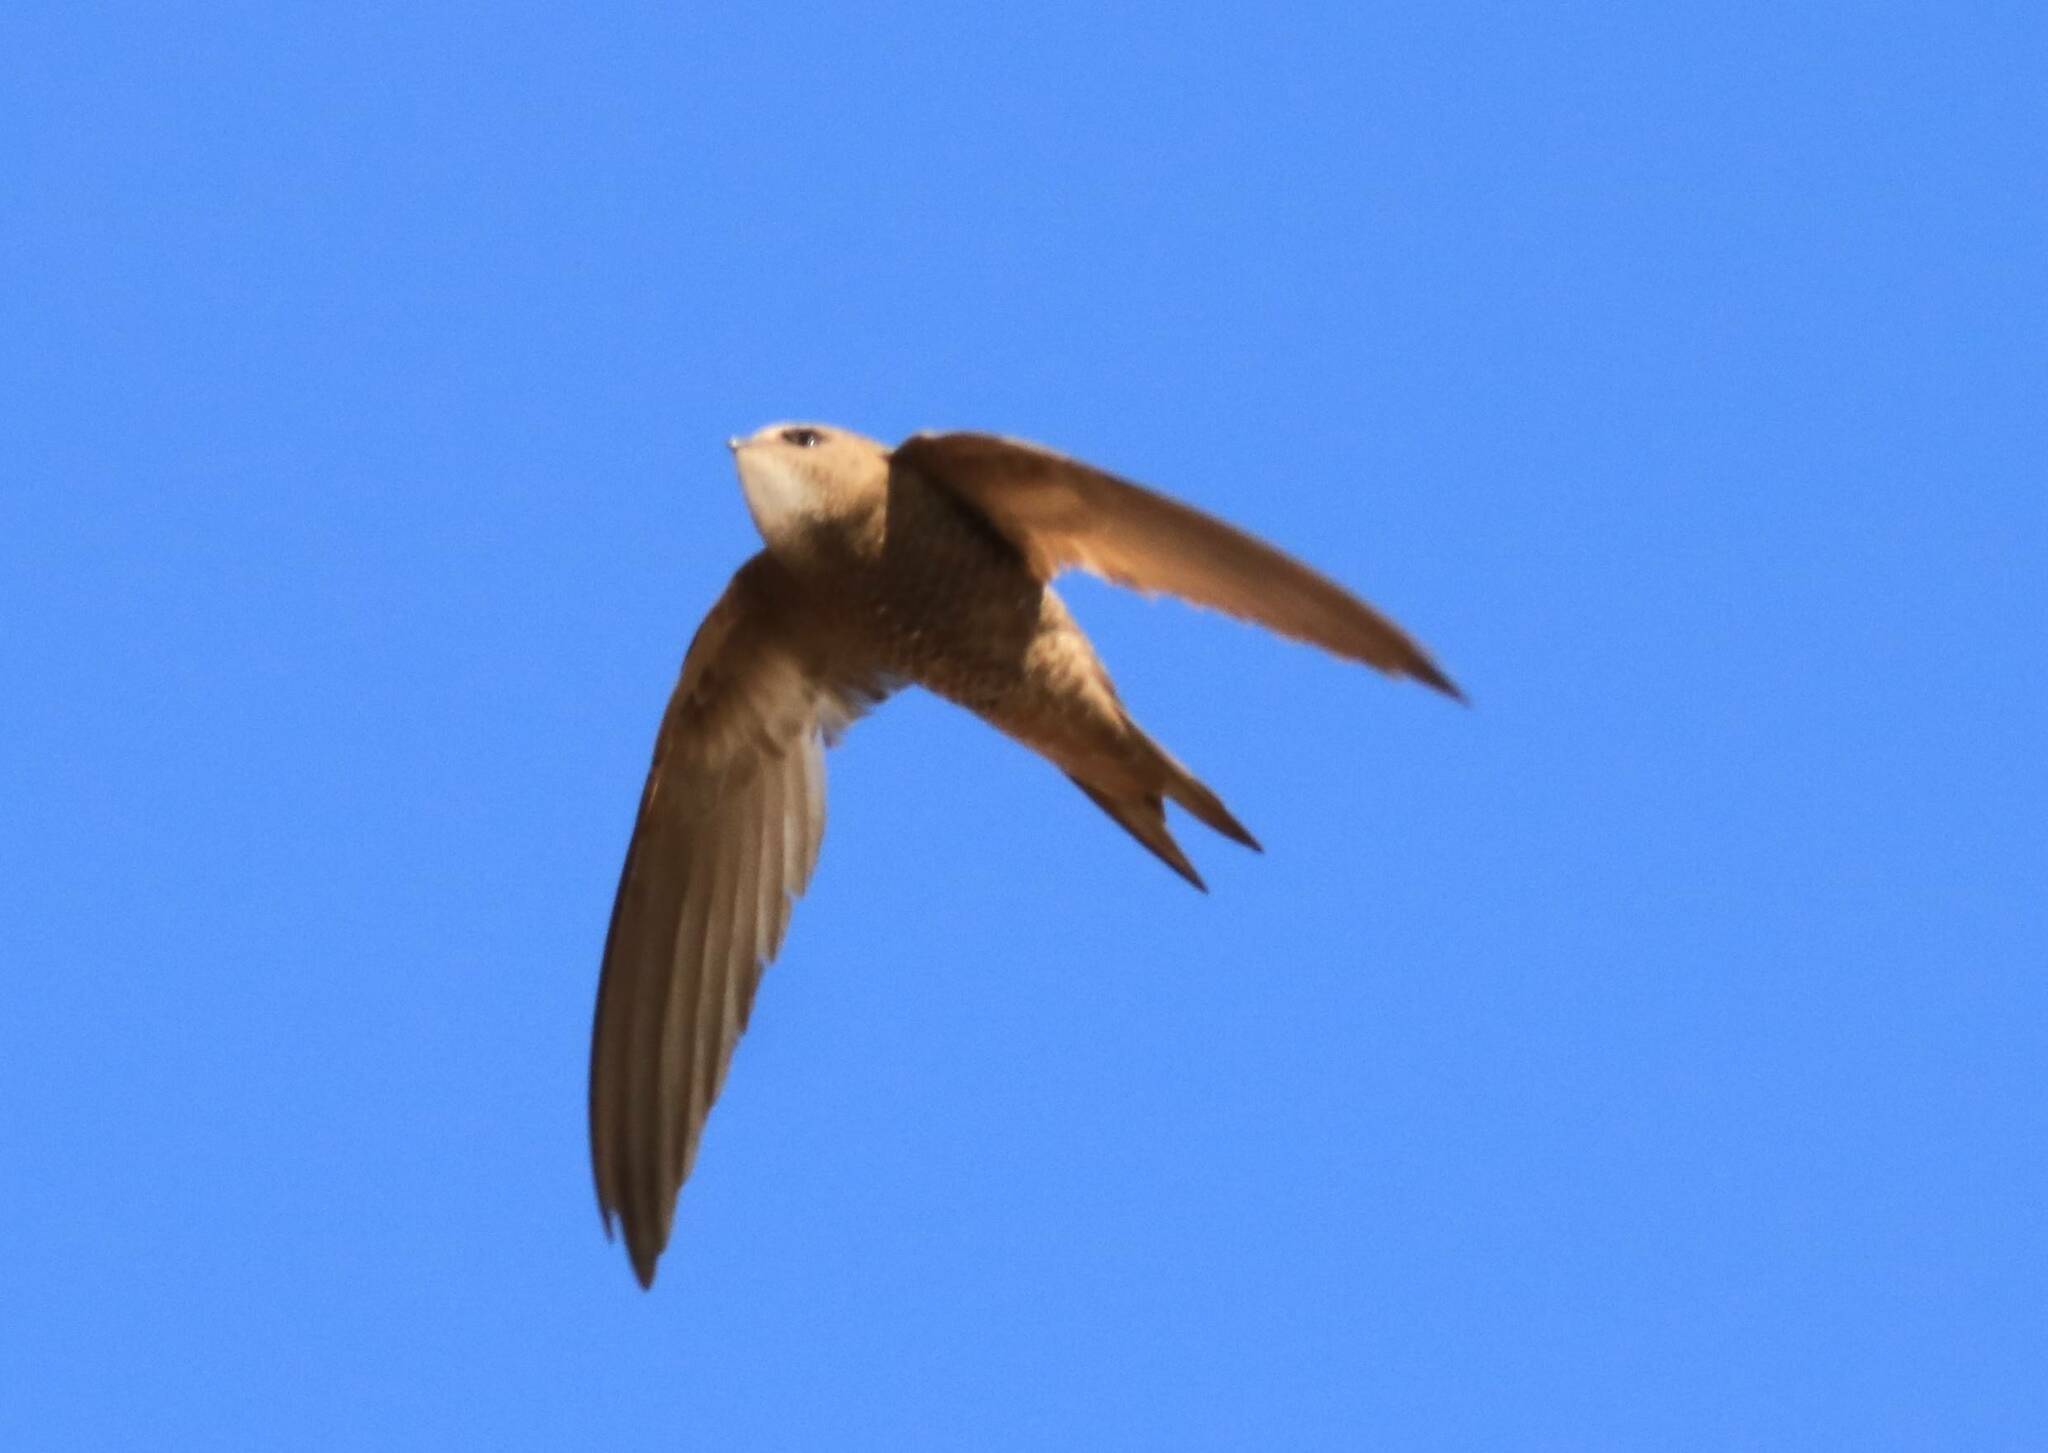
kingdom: Animalia
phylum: Chordata
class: Aves
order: Apodiformes
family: Apodidae
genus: Apus
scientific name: Apus pallidus
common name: Pallid swift
